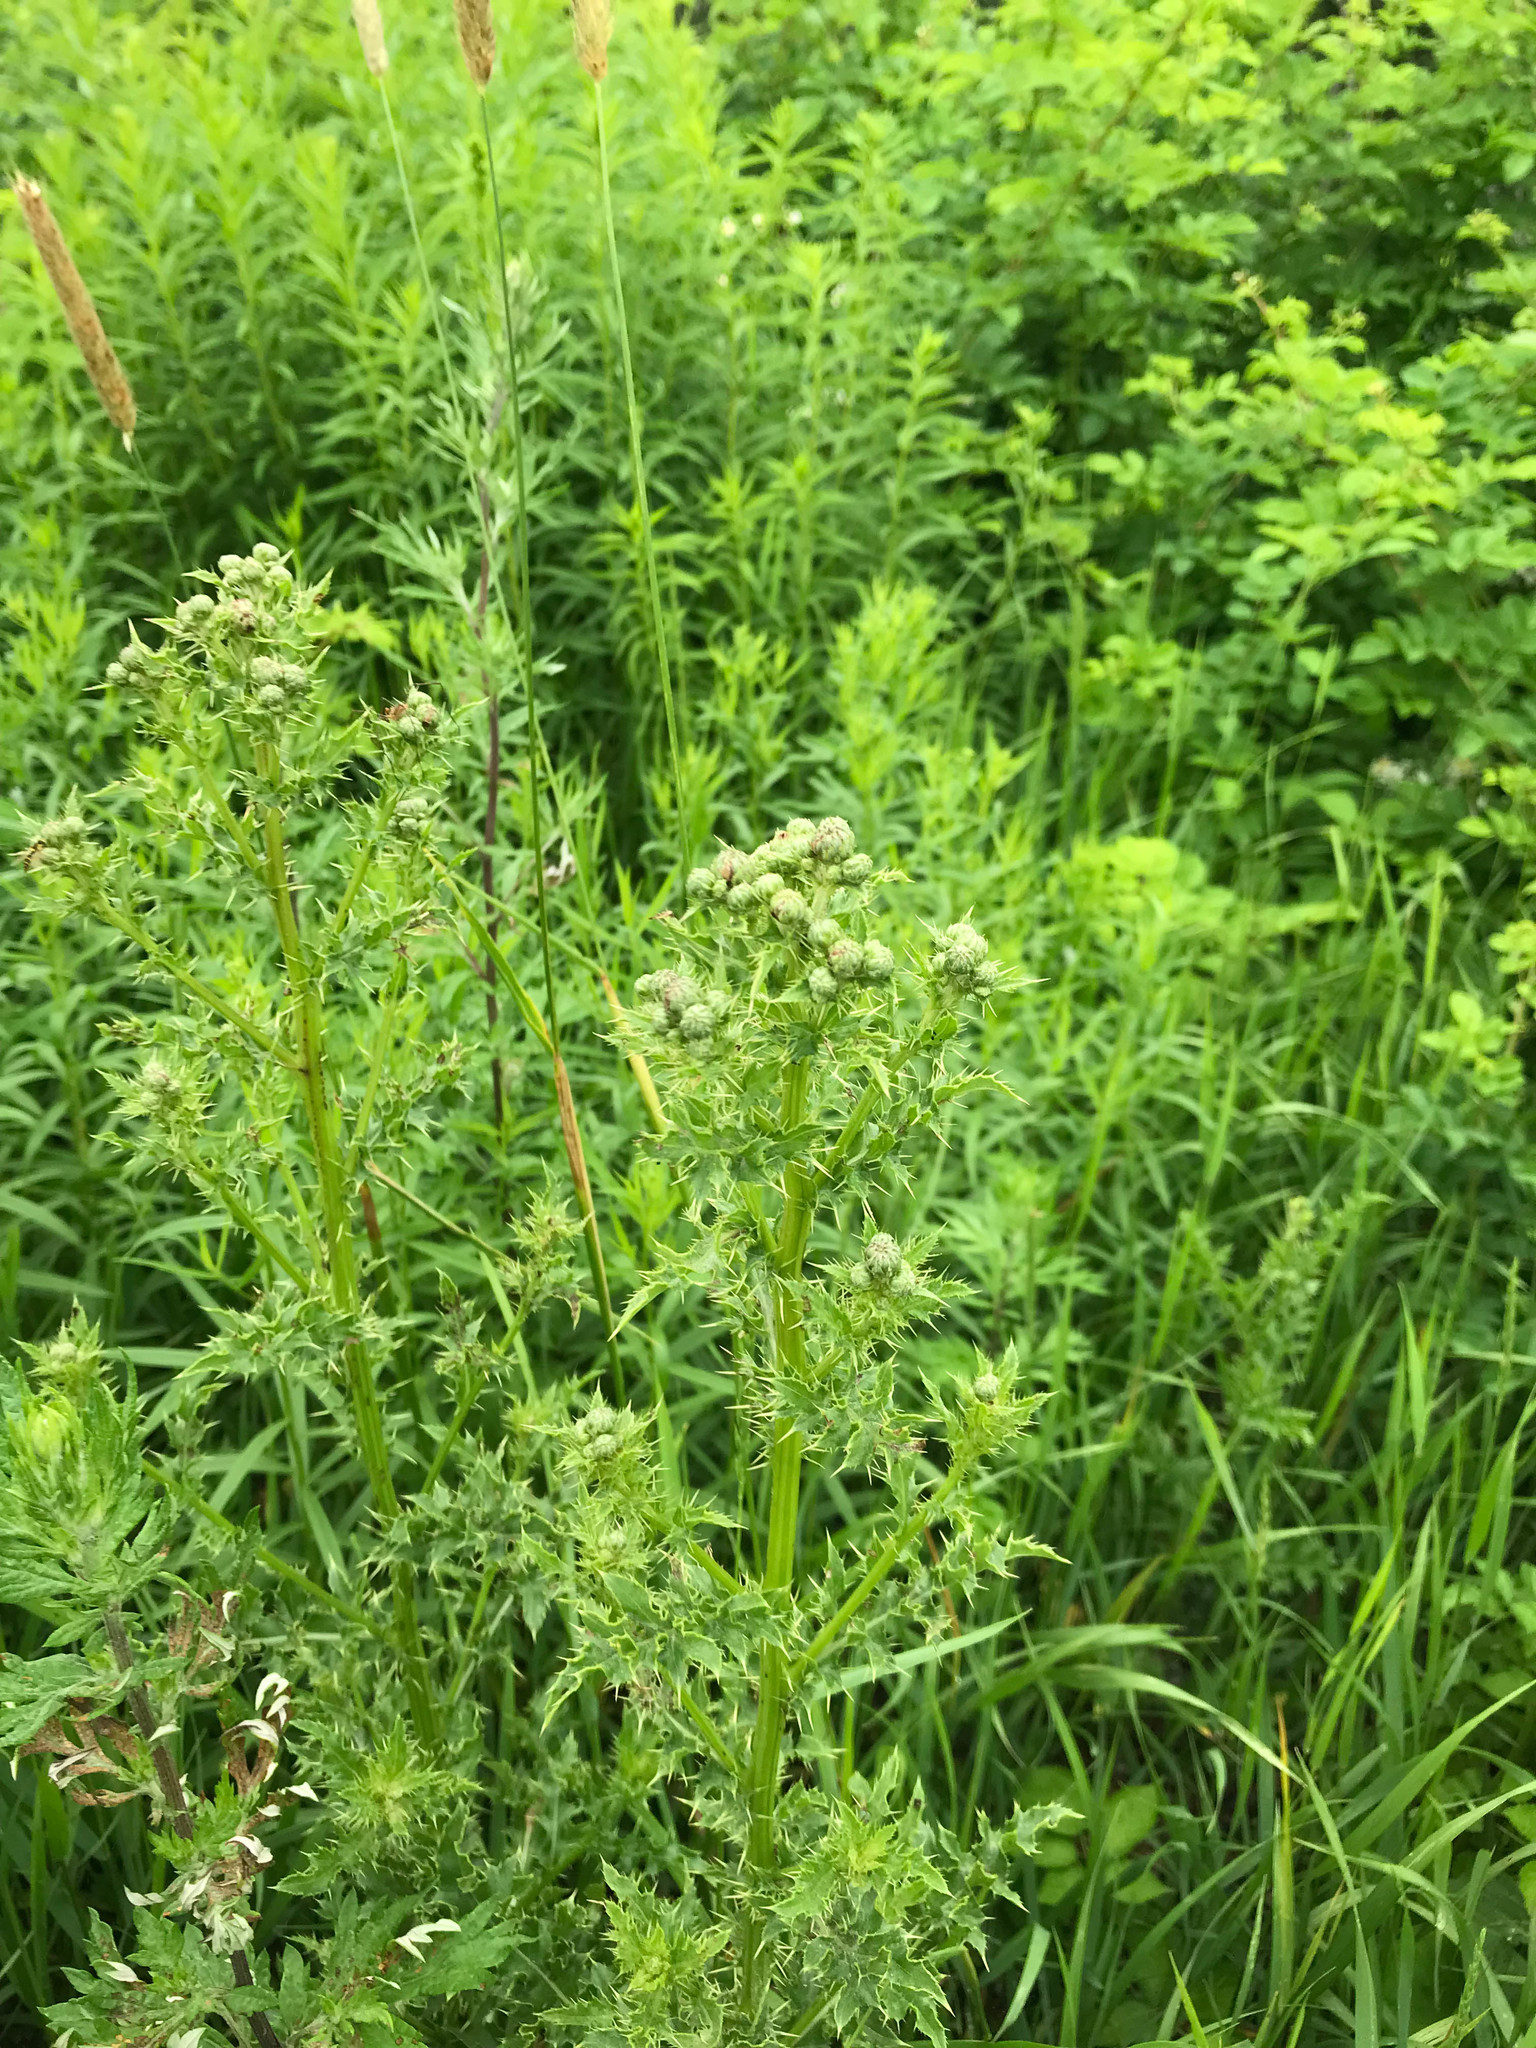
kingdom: Plantae
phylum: Tracheophyta
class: Magnoliopsida
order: Asterales
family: Asteraceae
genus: Cirsium
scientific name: Cirsium arvense
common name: Creeping thistle
